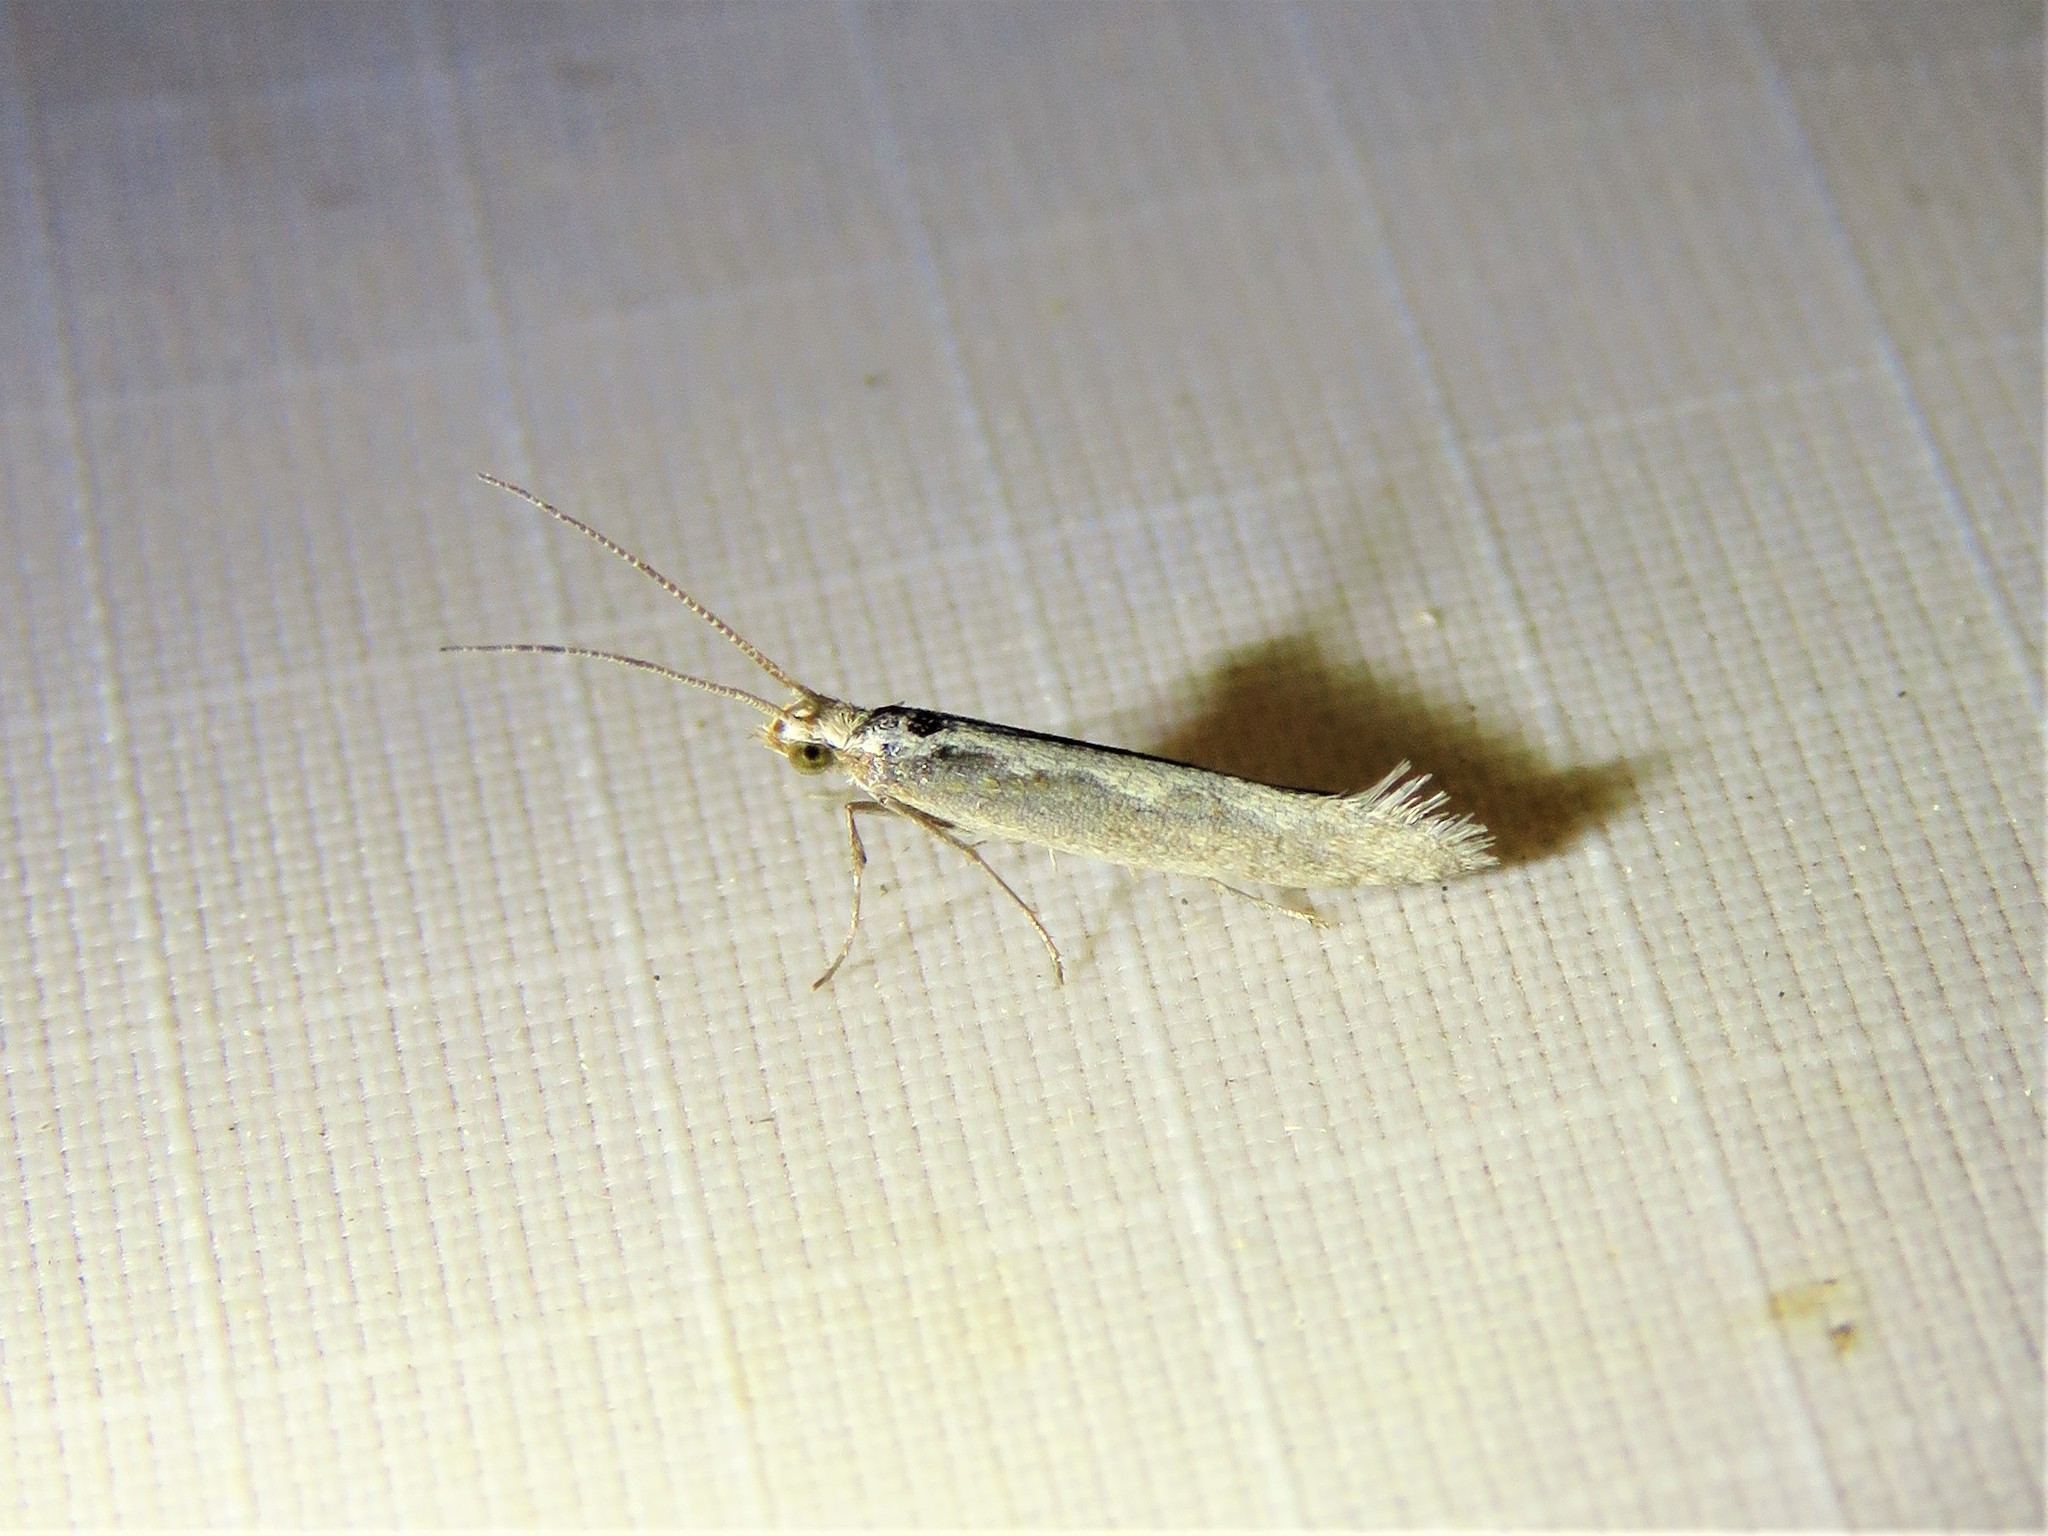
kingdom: Animalia
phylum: Arthropoda
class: Insecta
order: Lepidoptera
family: Plutellidae
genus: Plutella
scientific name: Plutella xylostella
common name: Diamond-back moth
